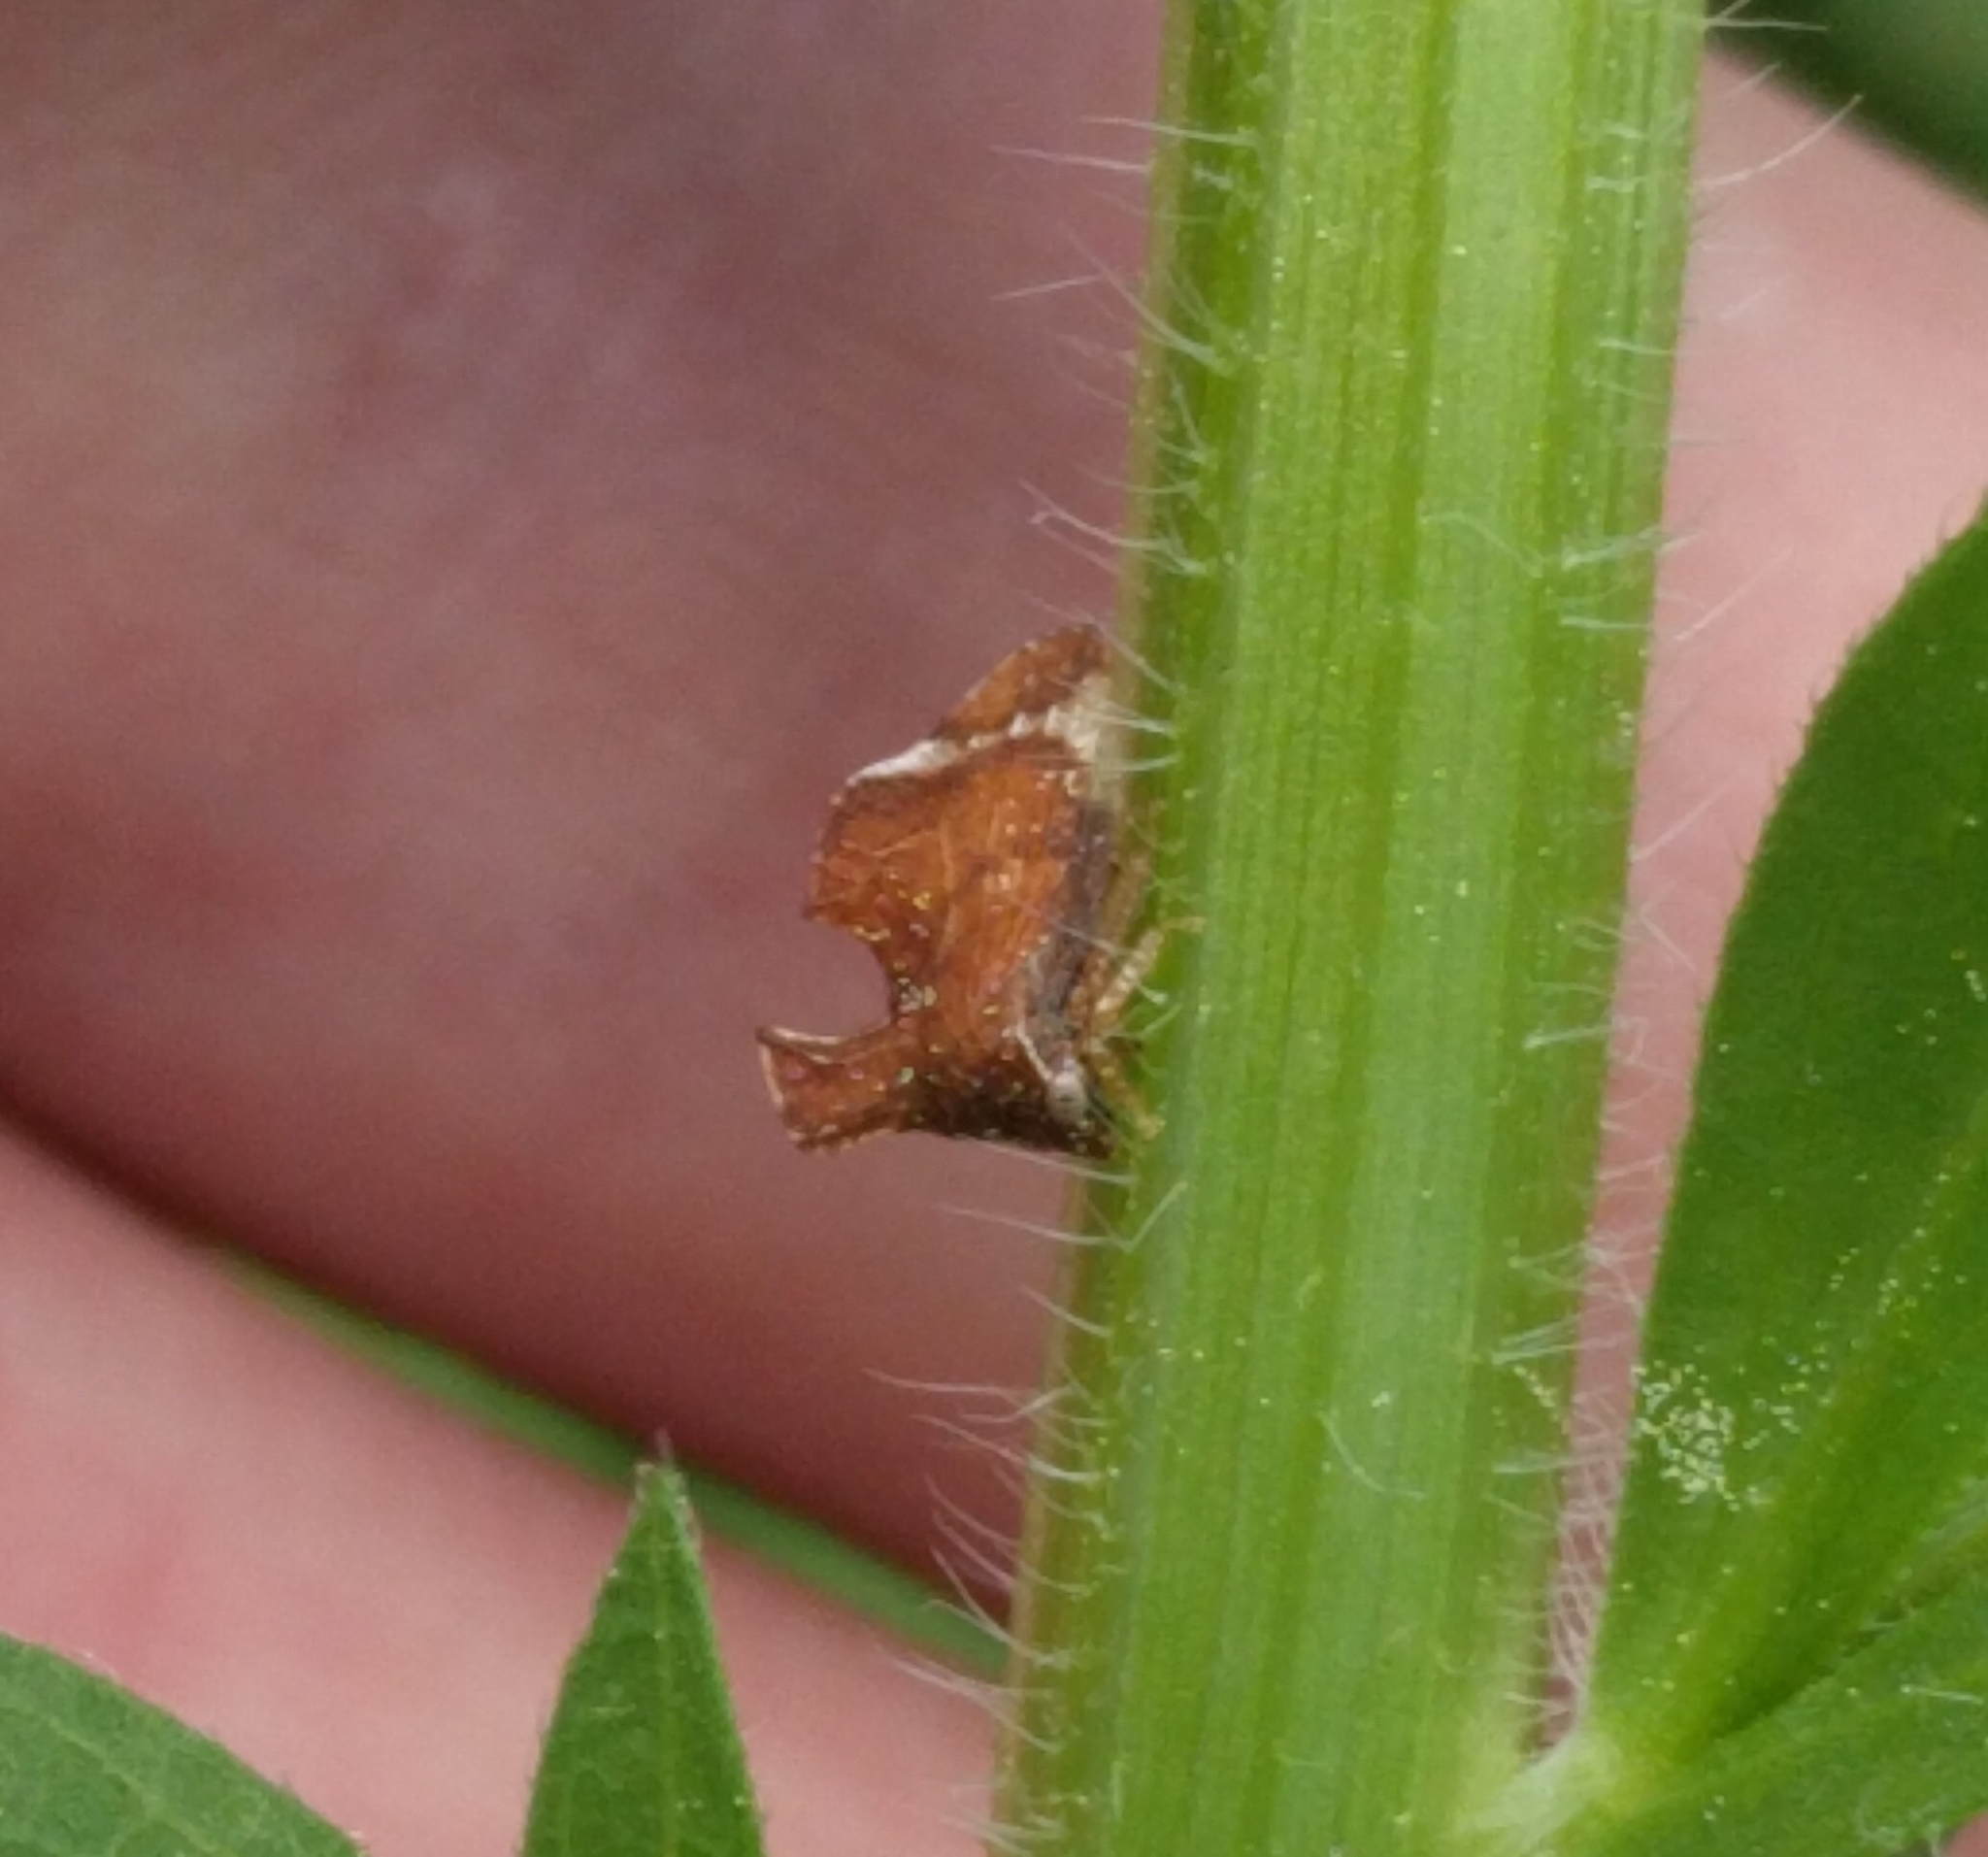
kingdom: Animalia
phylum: Arthropoda
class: Insecta
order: Hemiptera
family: Membracidae
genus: Entylia
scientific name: Entylia carinata
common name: Keeled treehopper
